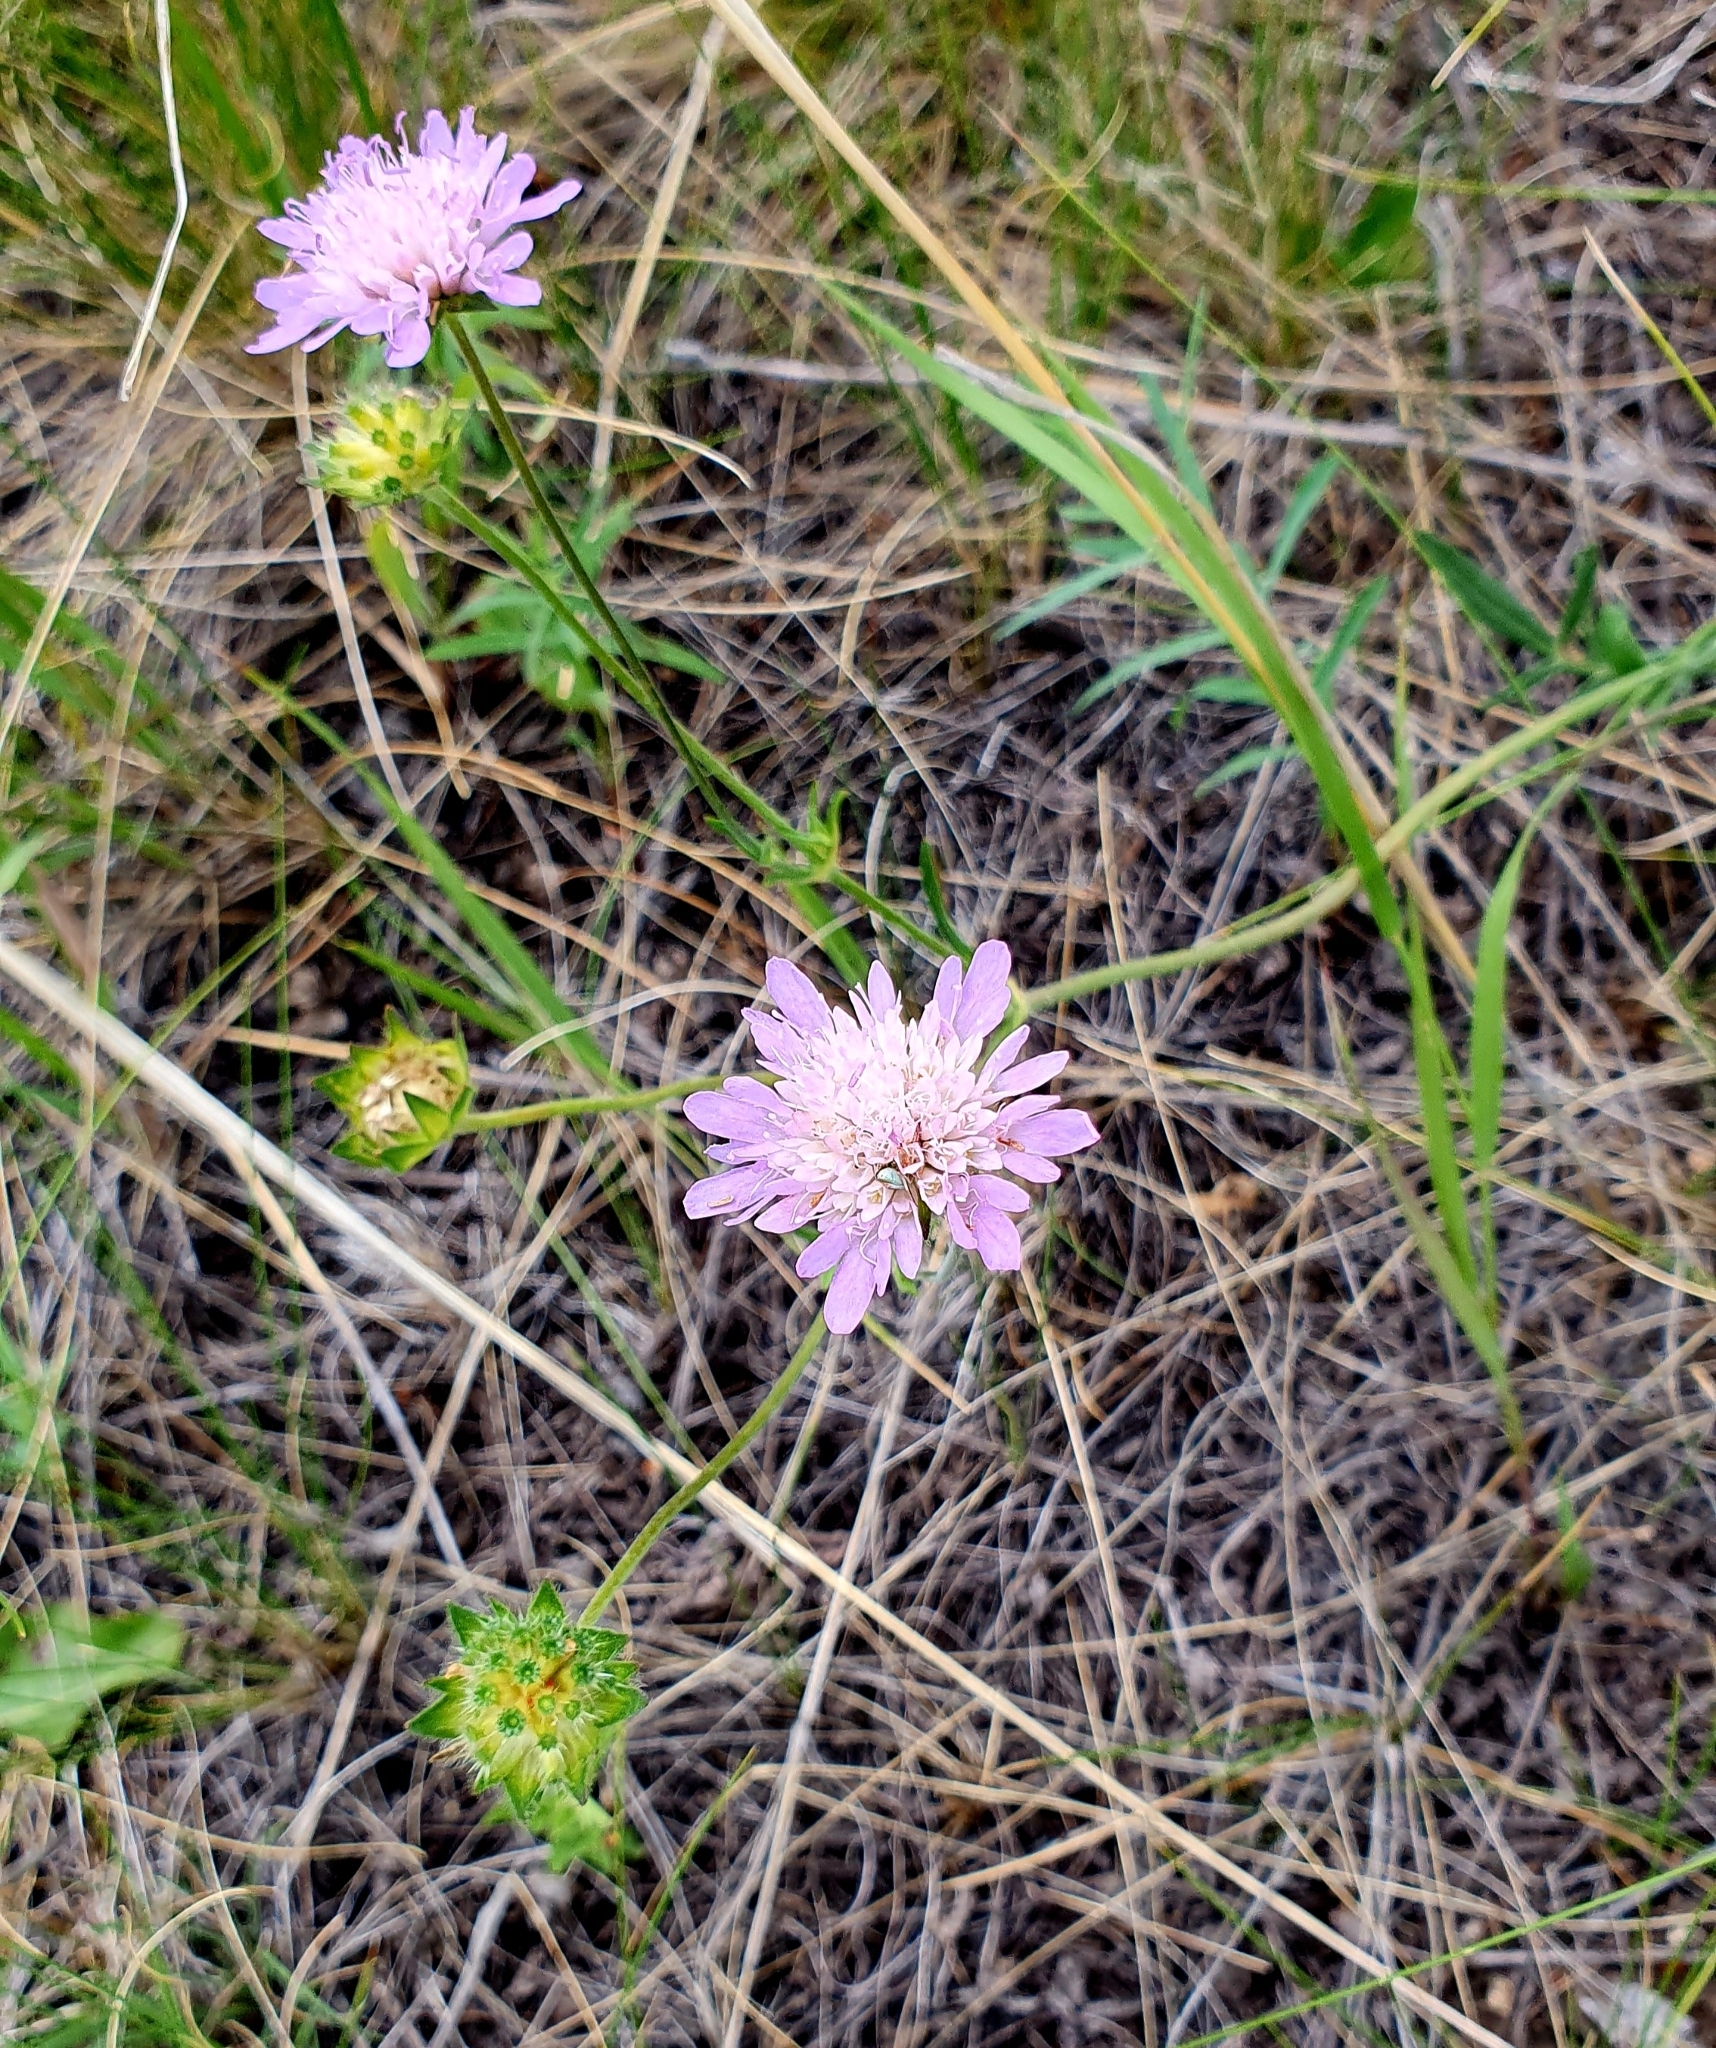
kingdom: Plantae
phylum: Tracheophyta
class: Magnoliopsida
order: Dipsacales
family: Caprifoliaceae
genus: Knautia
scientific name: Knautia arvensis
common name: Field scabiosa
